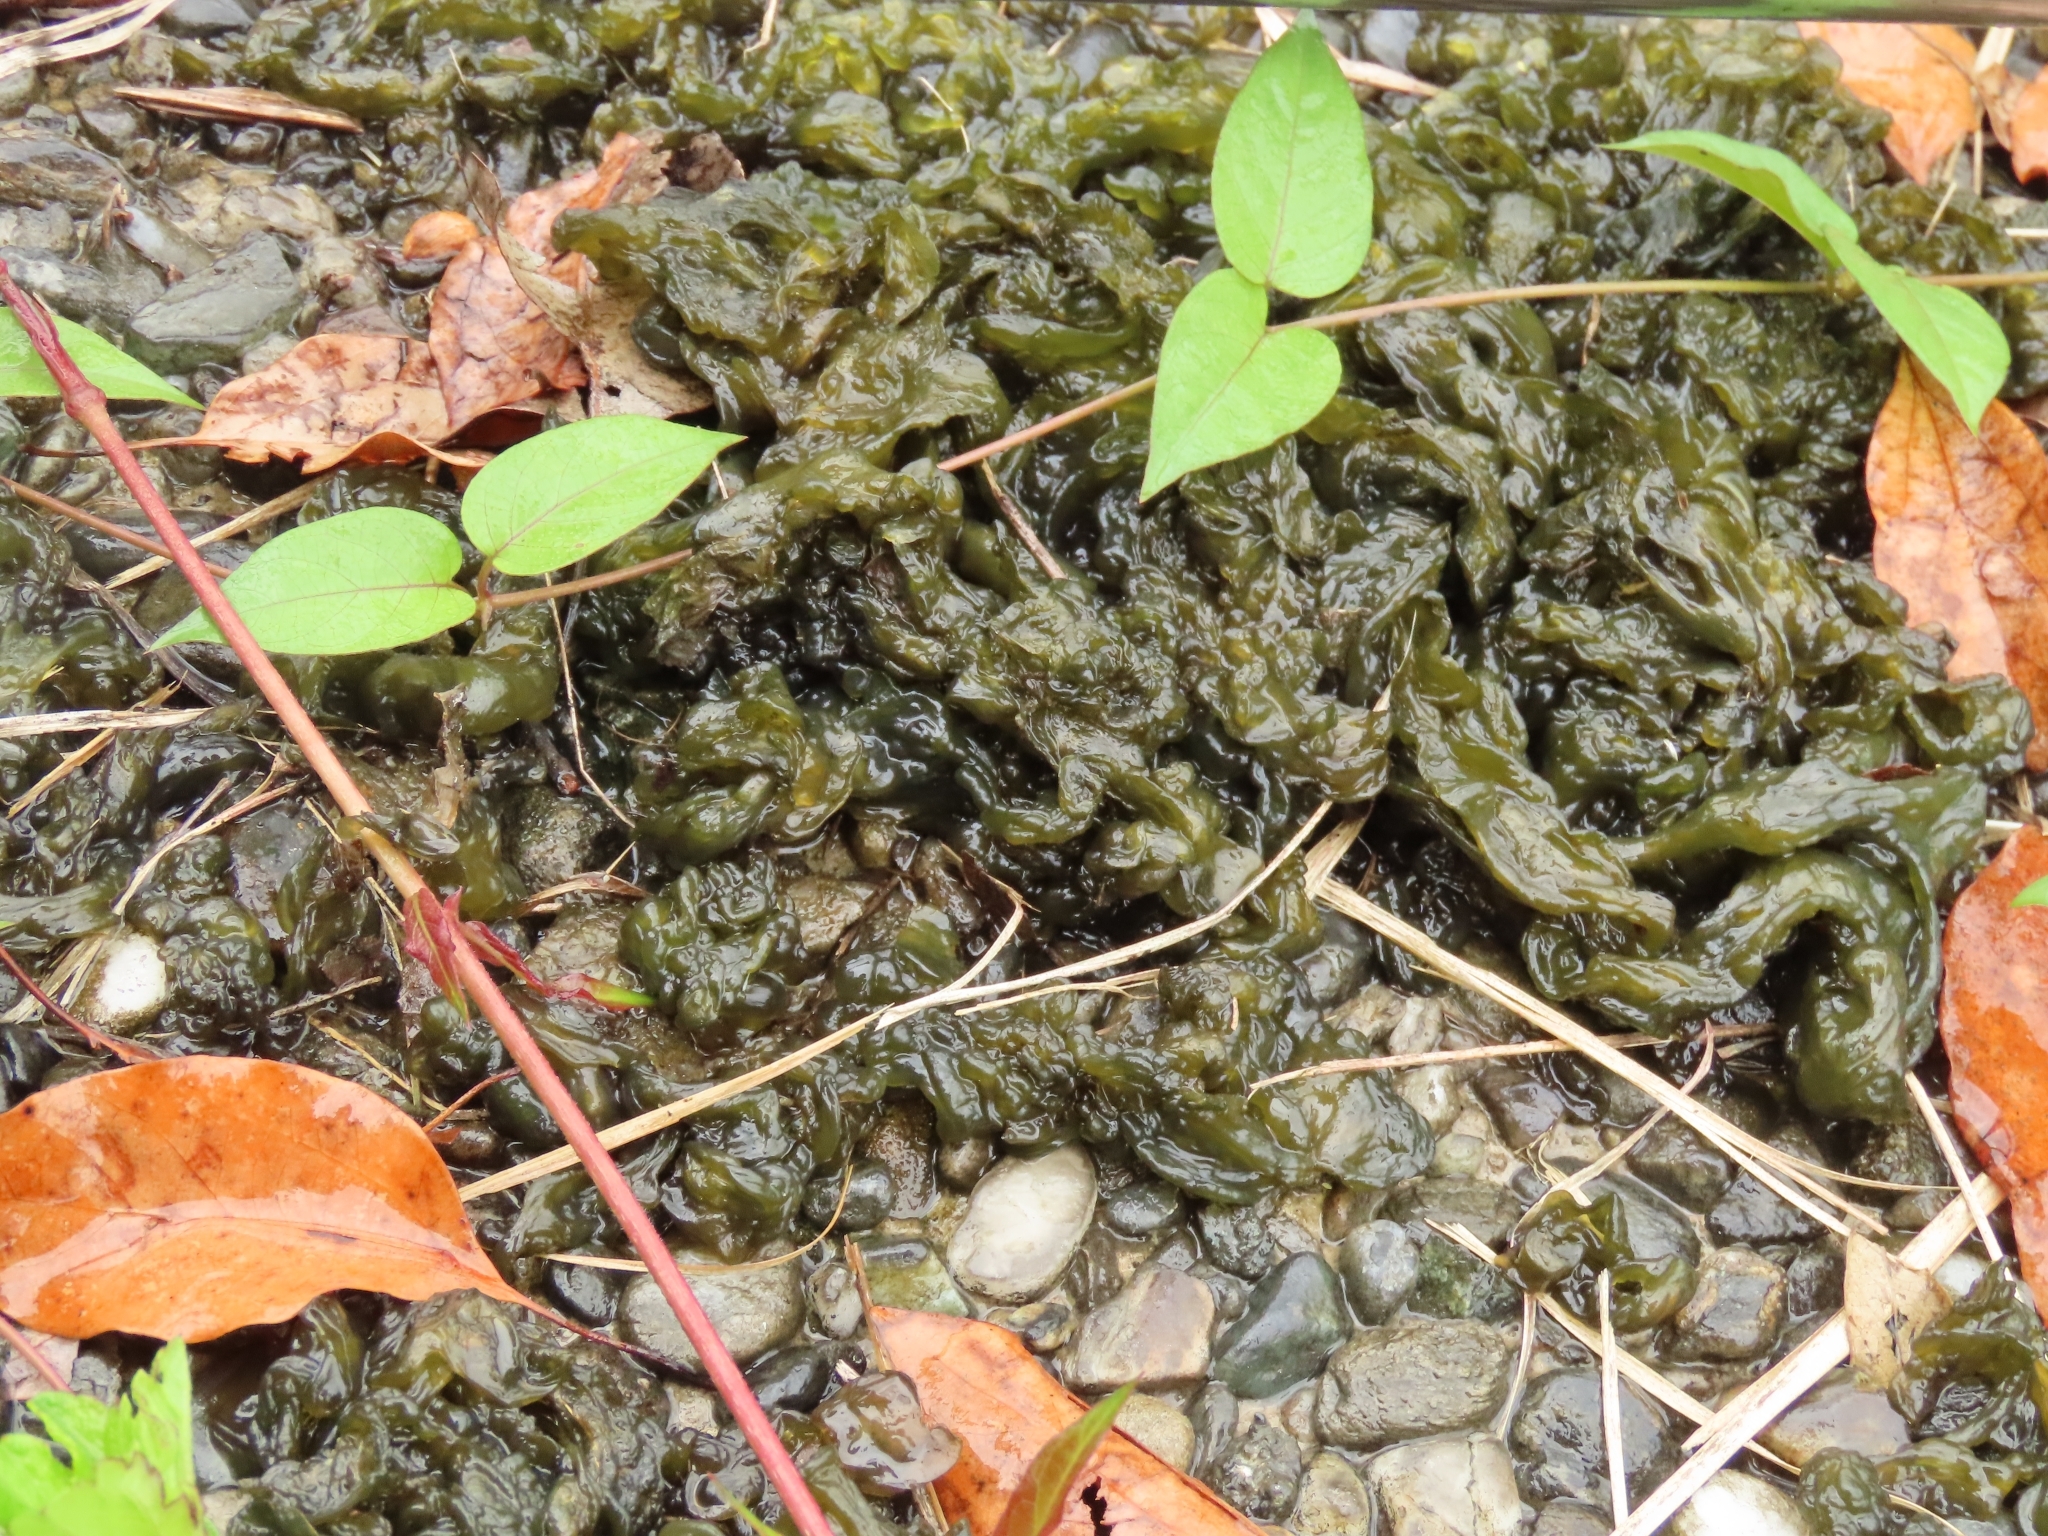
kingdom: Bacteria
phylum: Cyanobacteria
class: Cyanobacteriia
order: Cyanobacteriales
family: Nostocaceae
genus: Nostoc
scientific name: Nostoc commune
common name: Star jelly
